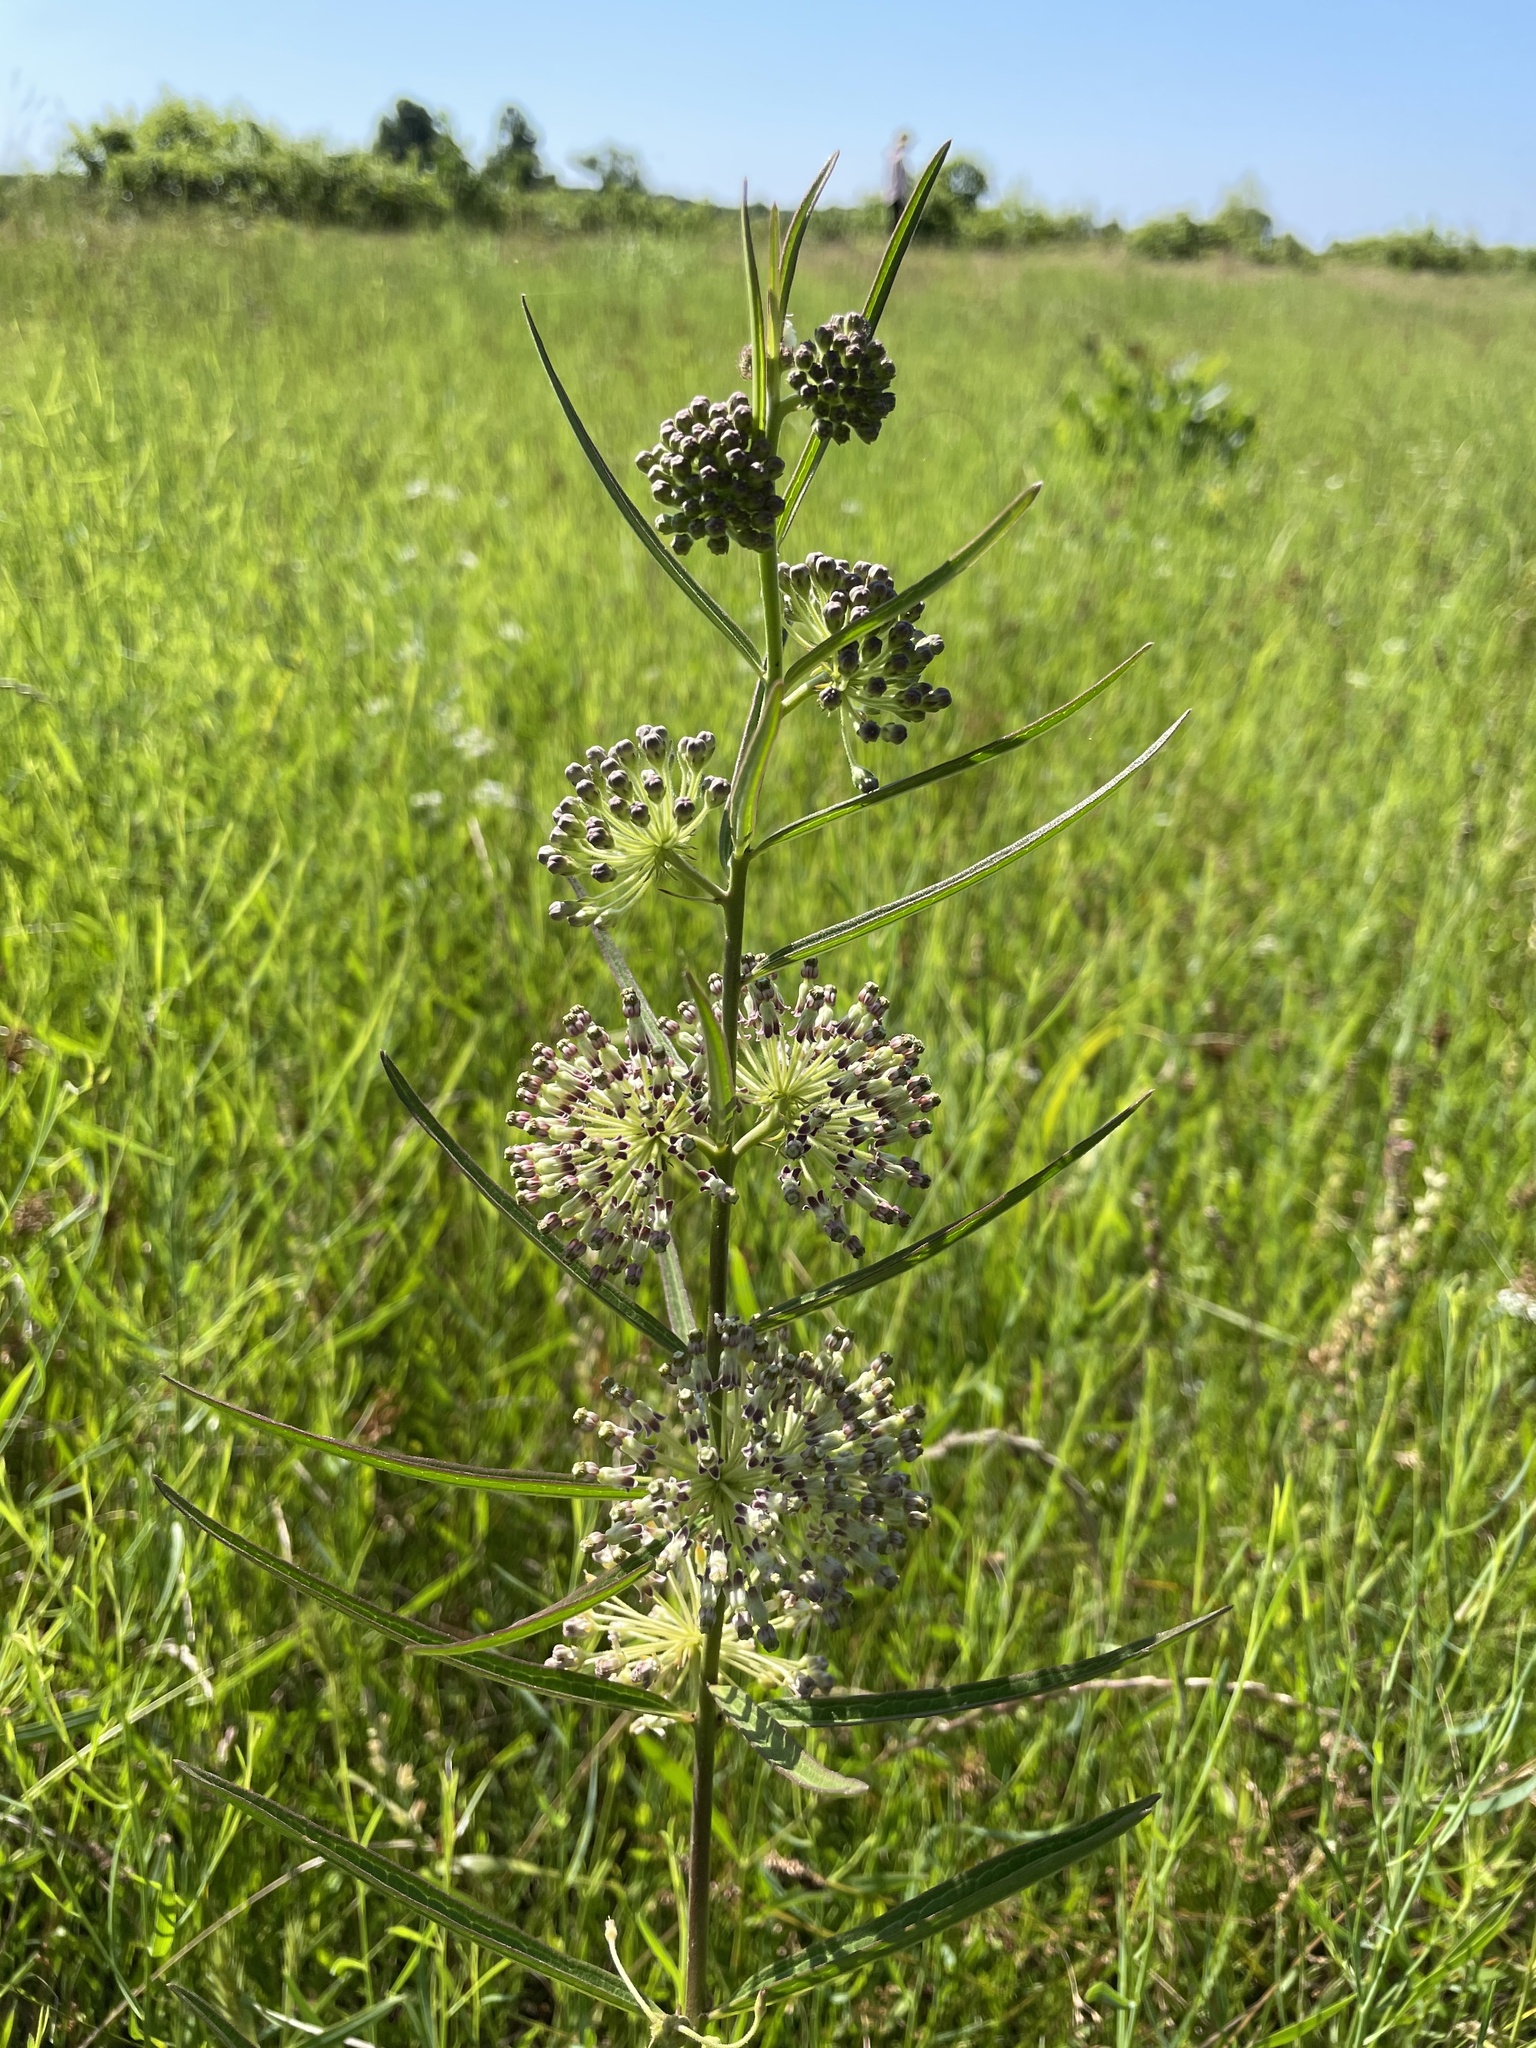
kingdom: Plantae
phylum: Tracheophyta
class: Magnoliopsida
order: Gentianales
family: Apocynaceae
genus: Asclepias
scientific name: Asclepias hirtella
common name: Prairie milkweed
